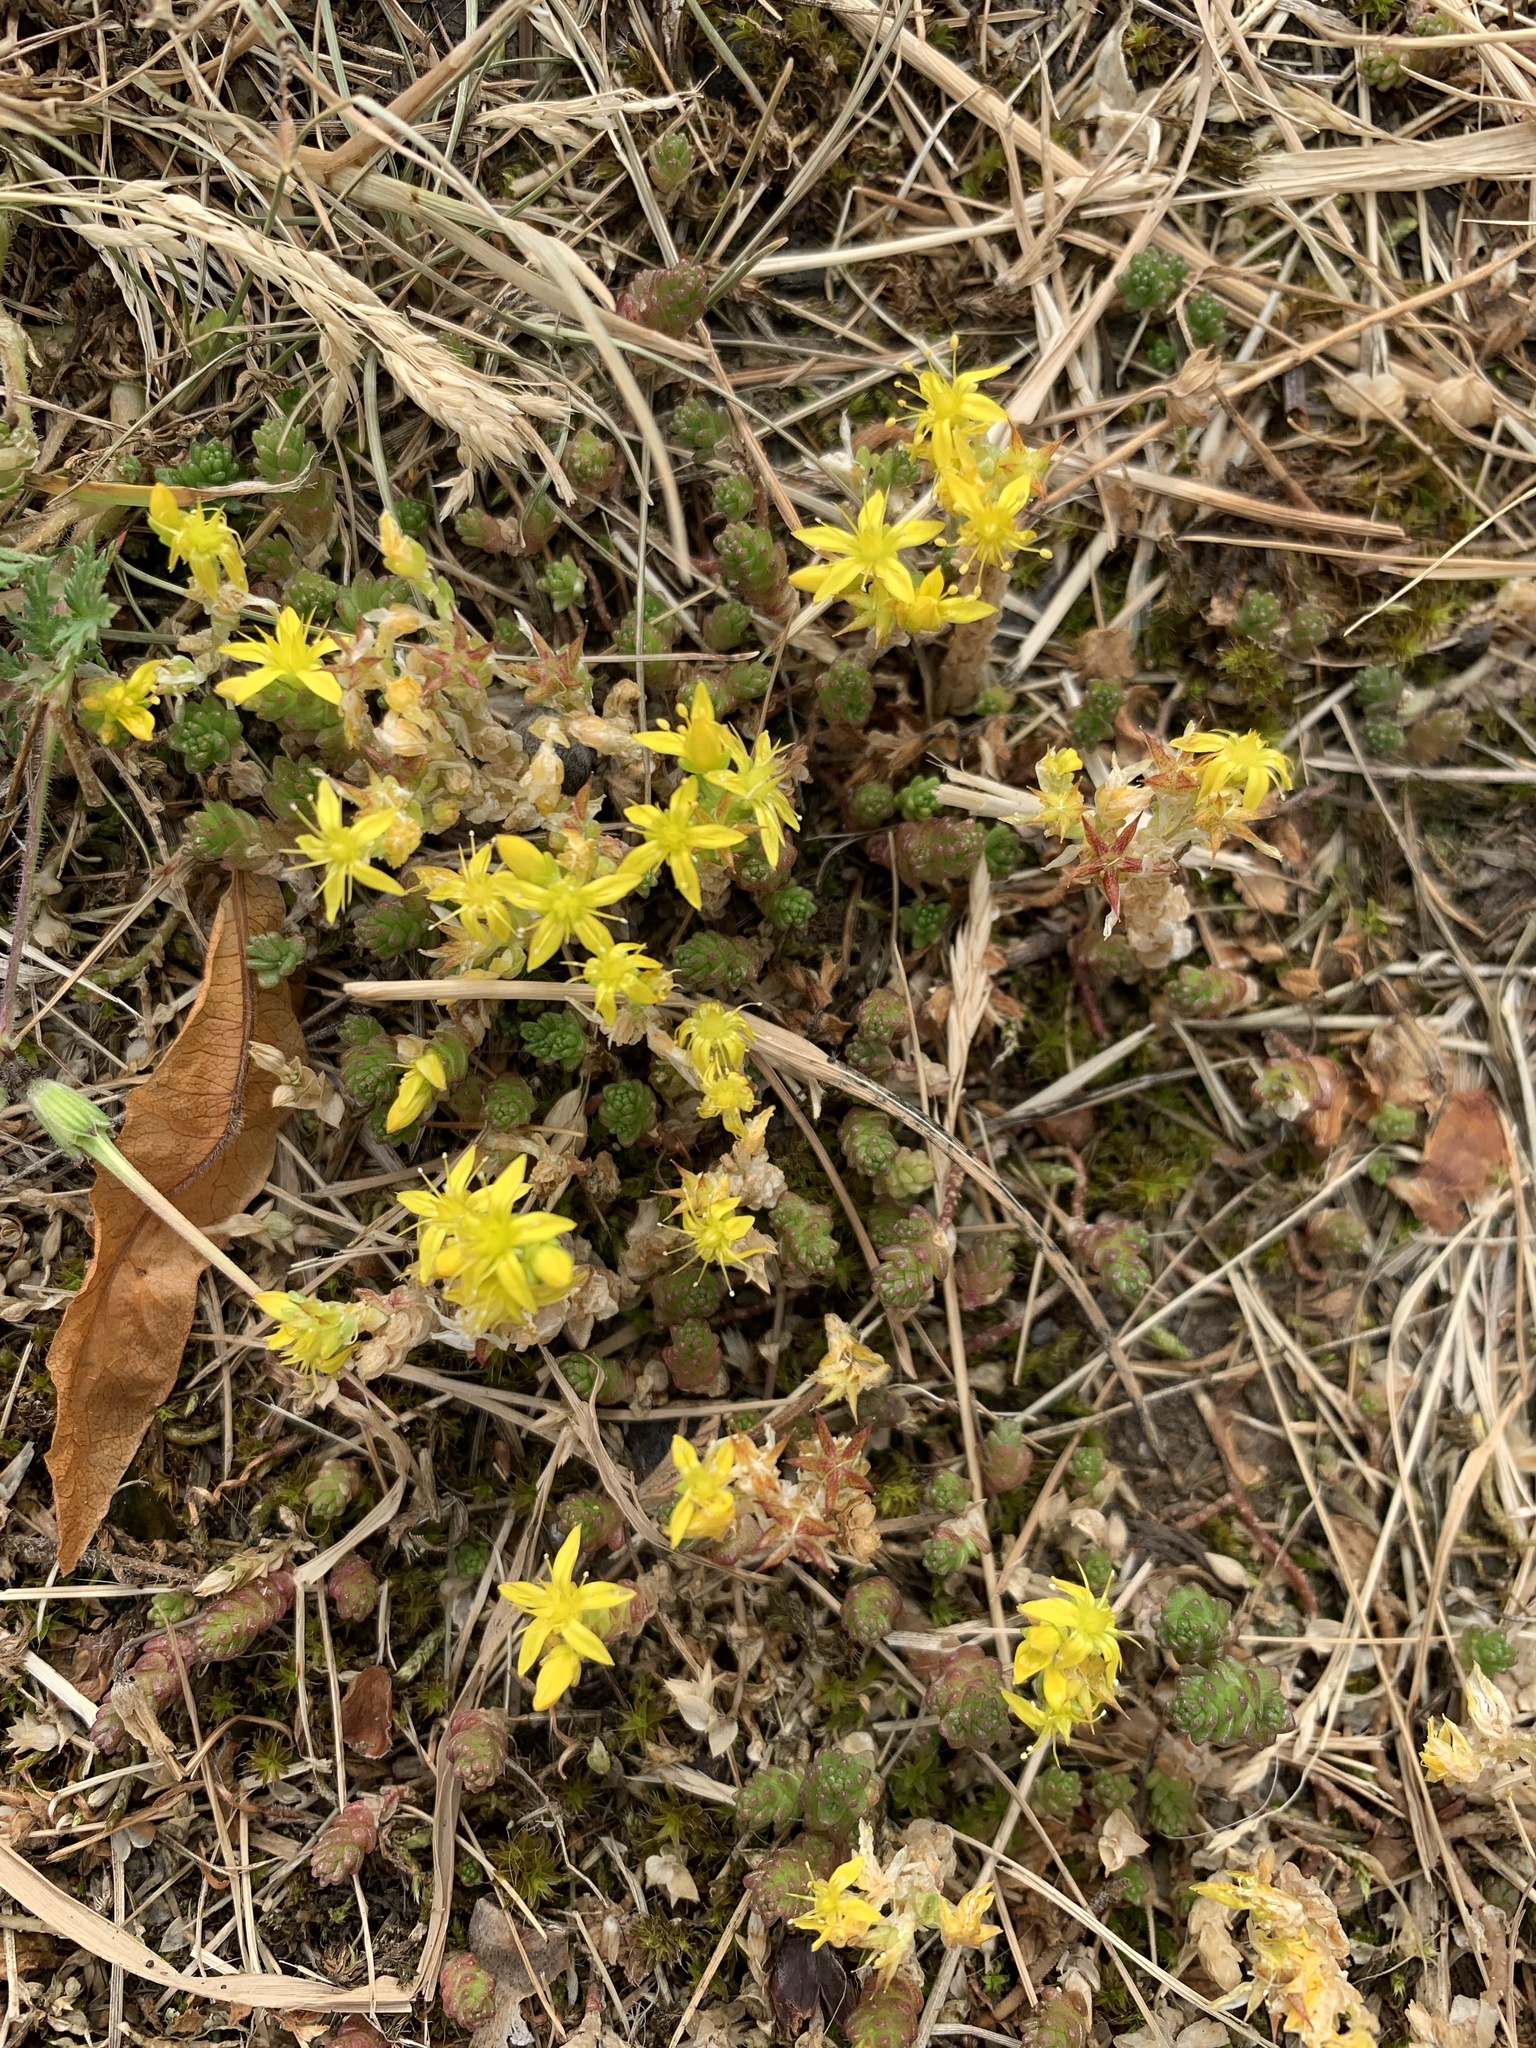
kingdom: Plantae
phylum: Tracheophyta
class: Magnoliopsida
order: Saxifragales
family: Crassulaceae
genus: Sedum
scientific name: Sedum acre
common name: Biting stonecrop
